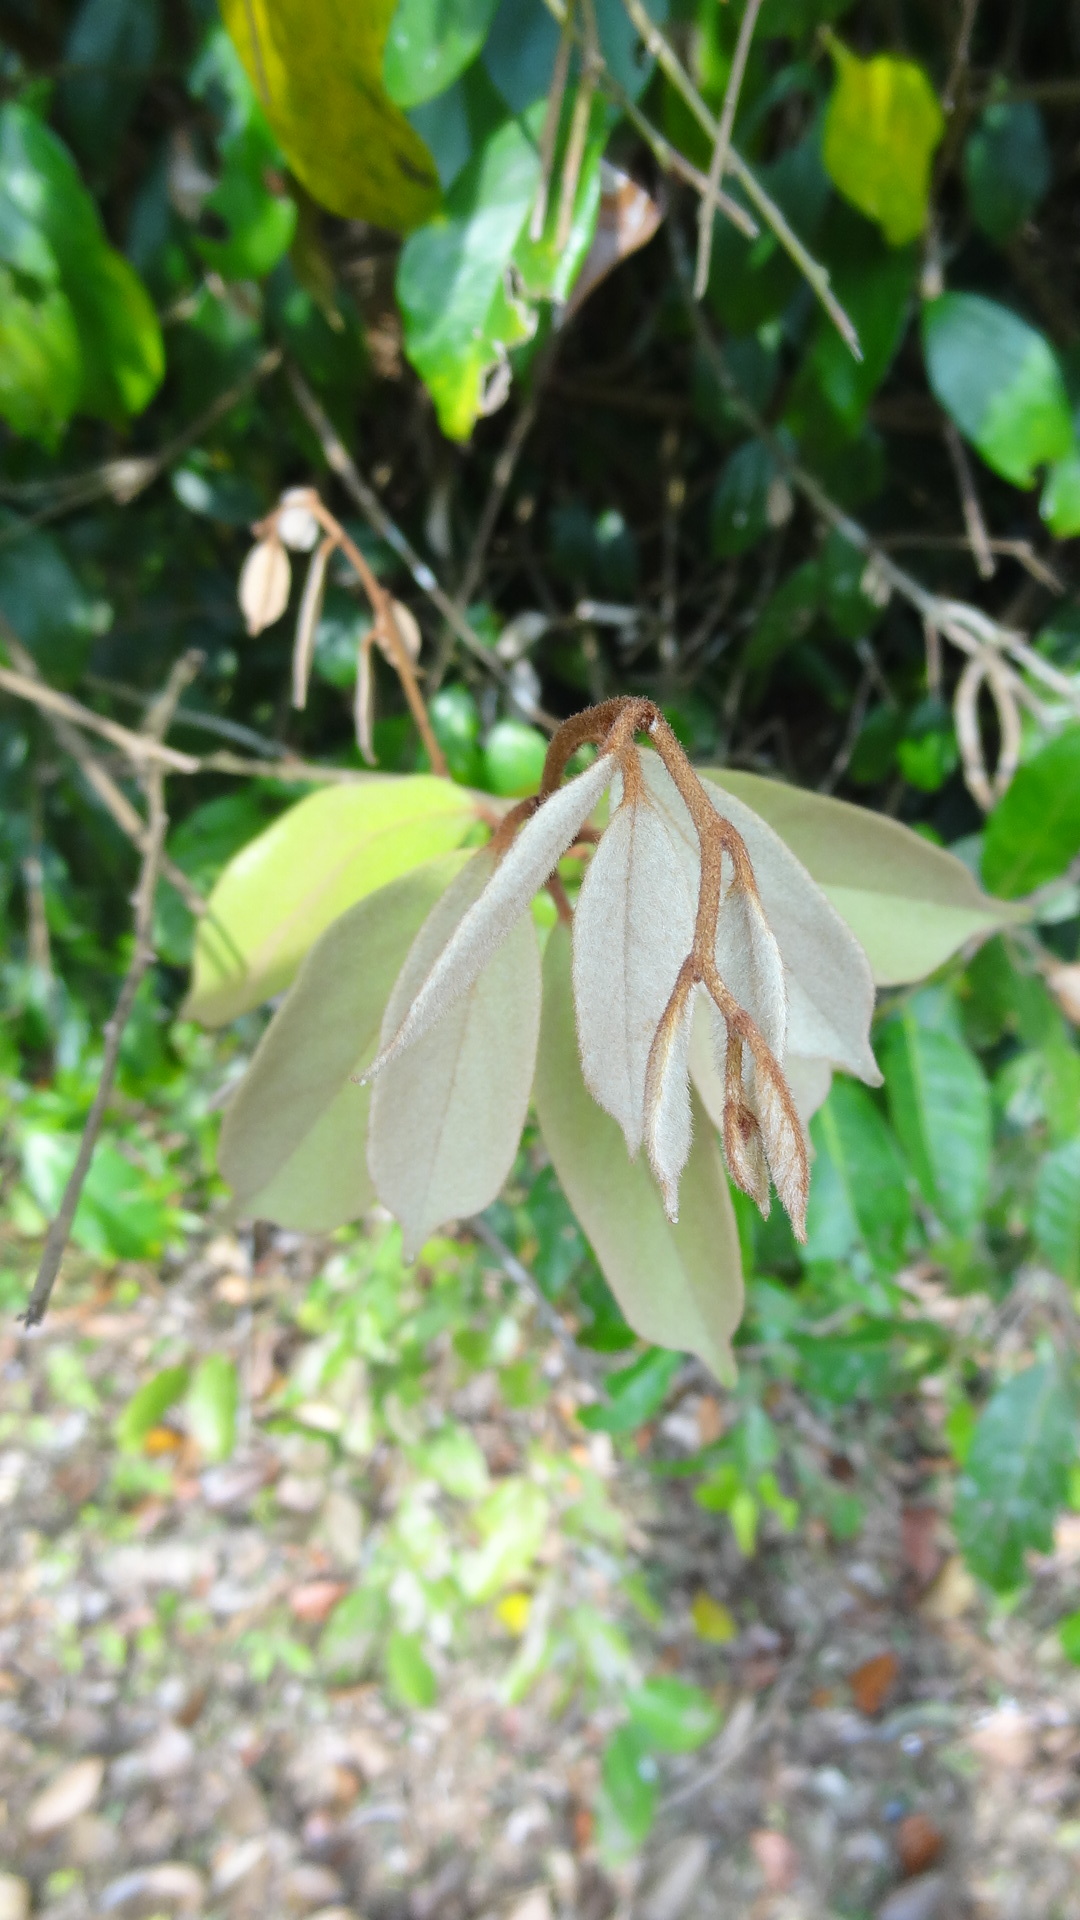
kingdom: Plantae
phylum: Tracheophyta
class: Magnoliopsida
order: Santalales
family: Cervantesiaceae
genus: Scleropyrum
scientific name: Scleropyrum pentandrum
